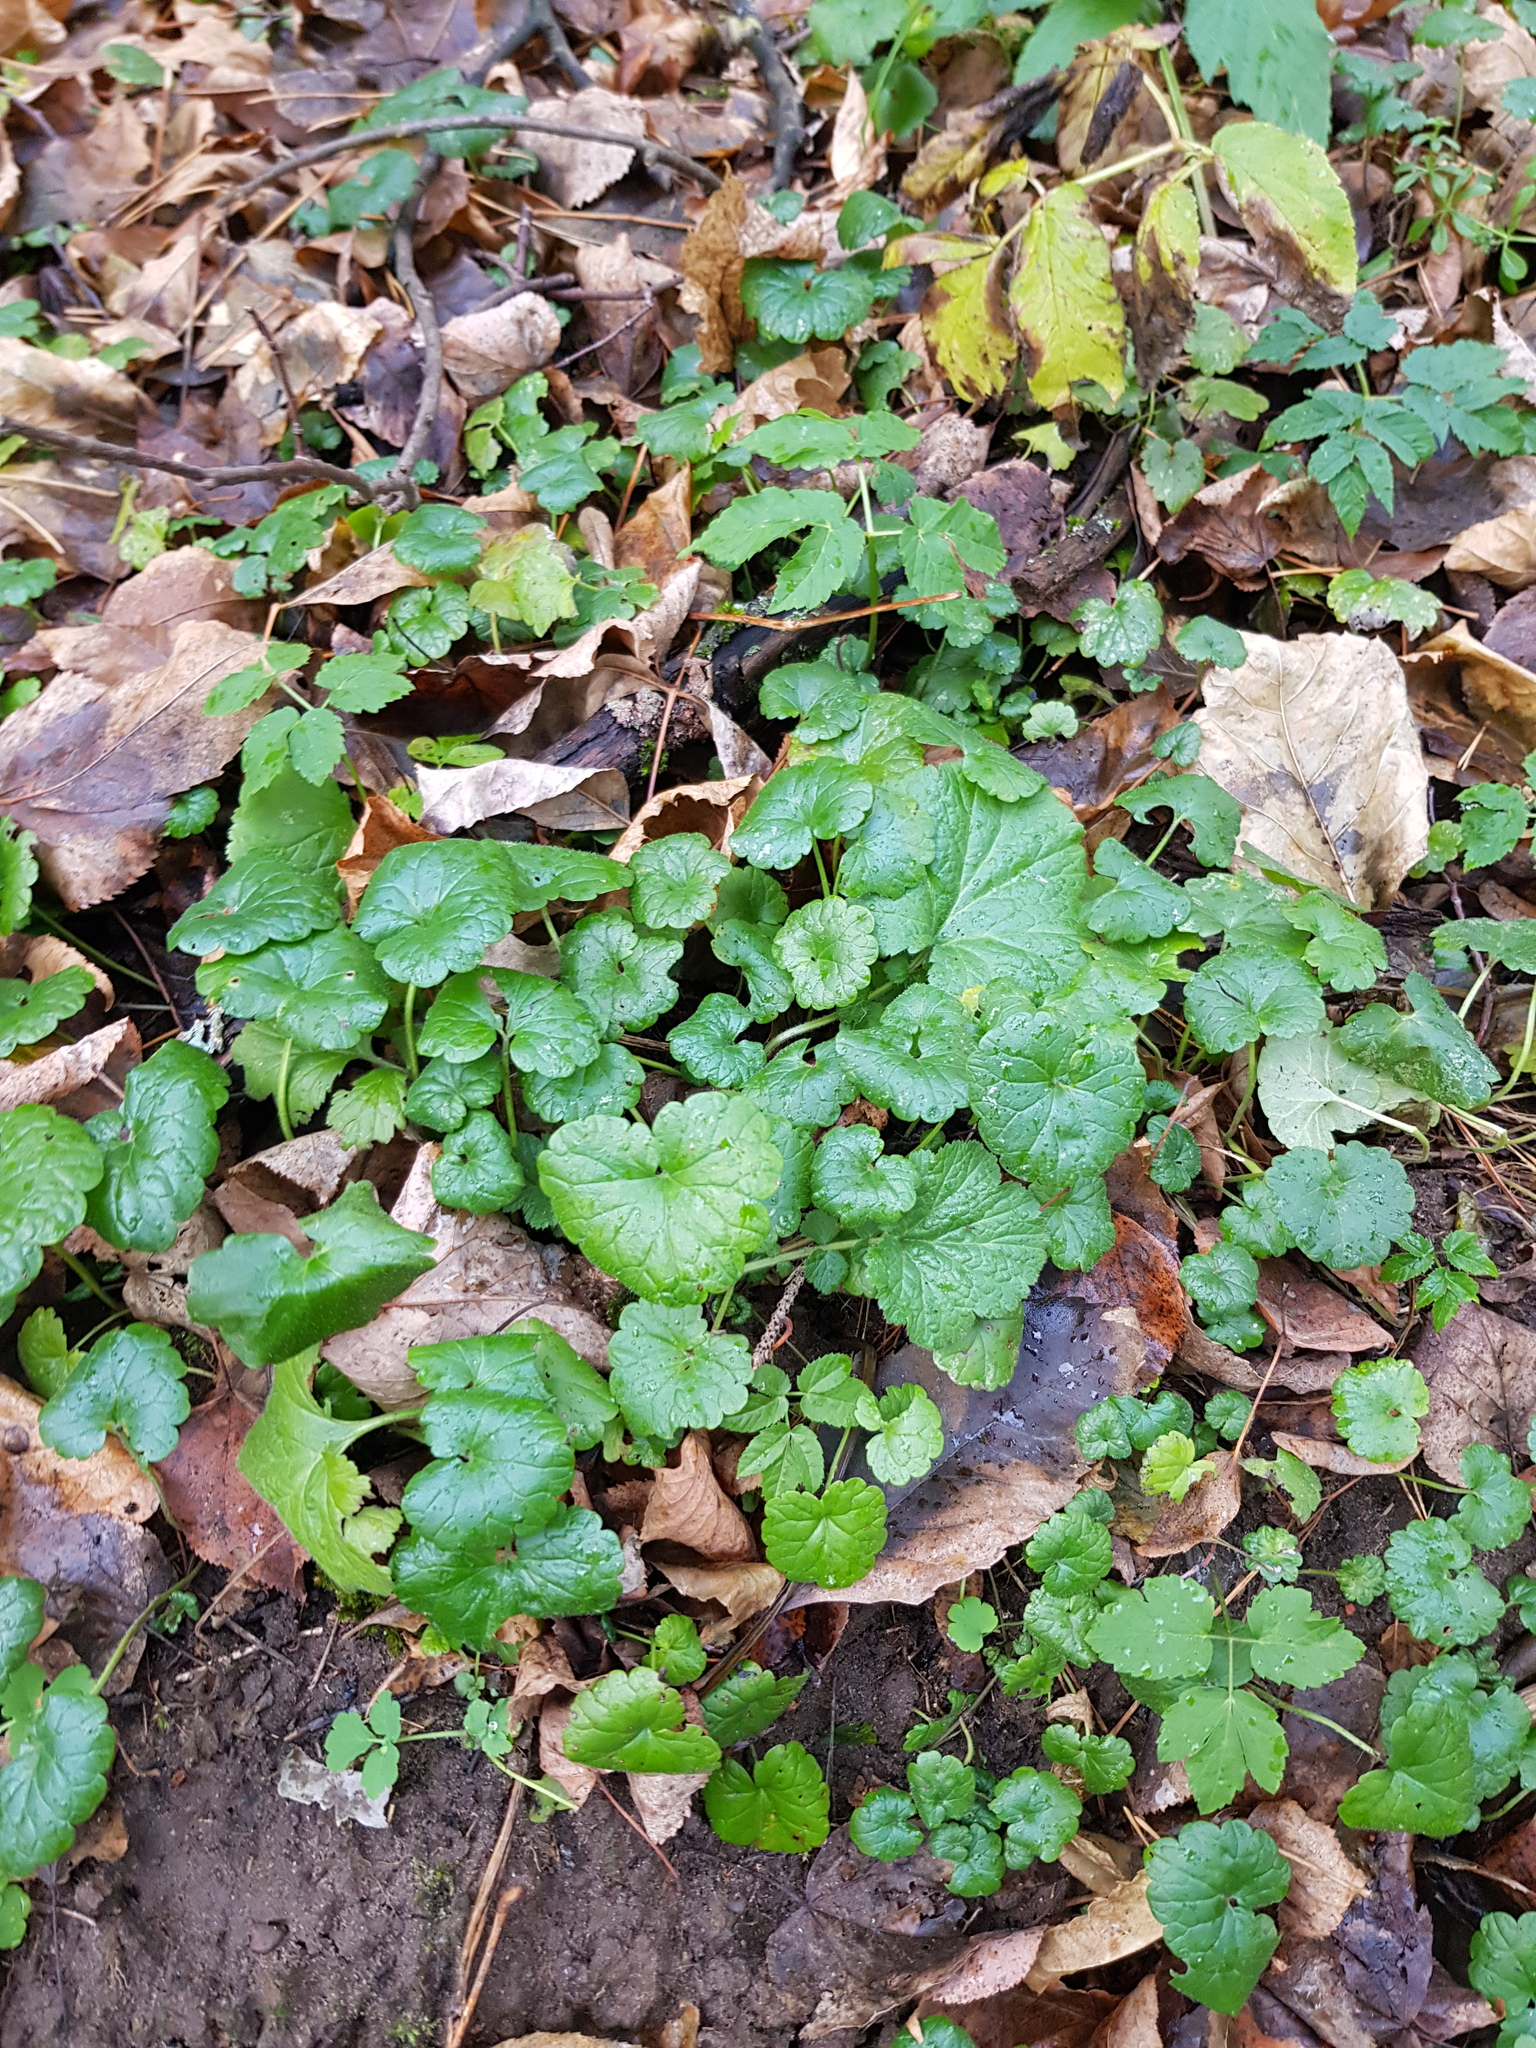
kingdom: Plantae
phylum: Tracheophyta
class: Magnoliopsida
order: Lamiales
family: Lamiaceae
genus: Glechoma
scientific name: Glechoma hederacea
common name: Ground ivy
